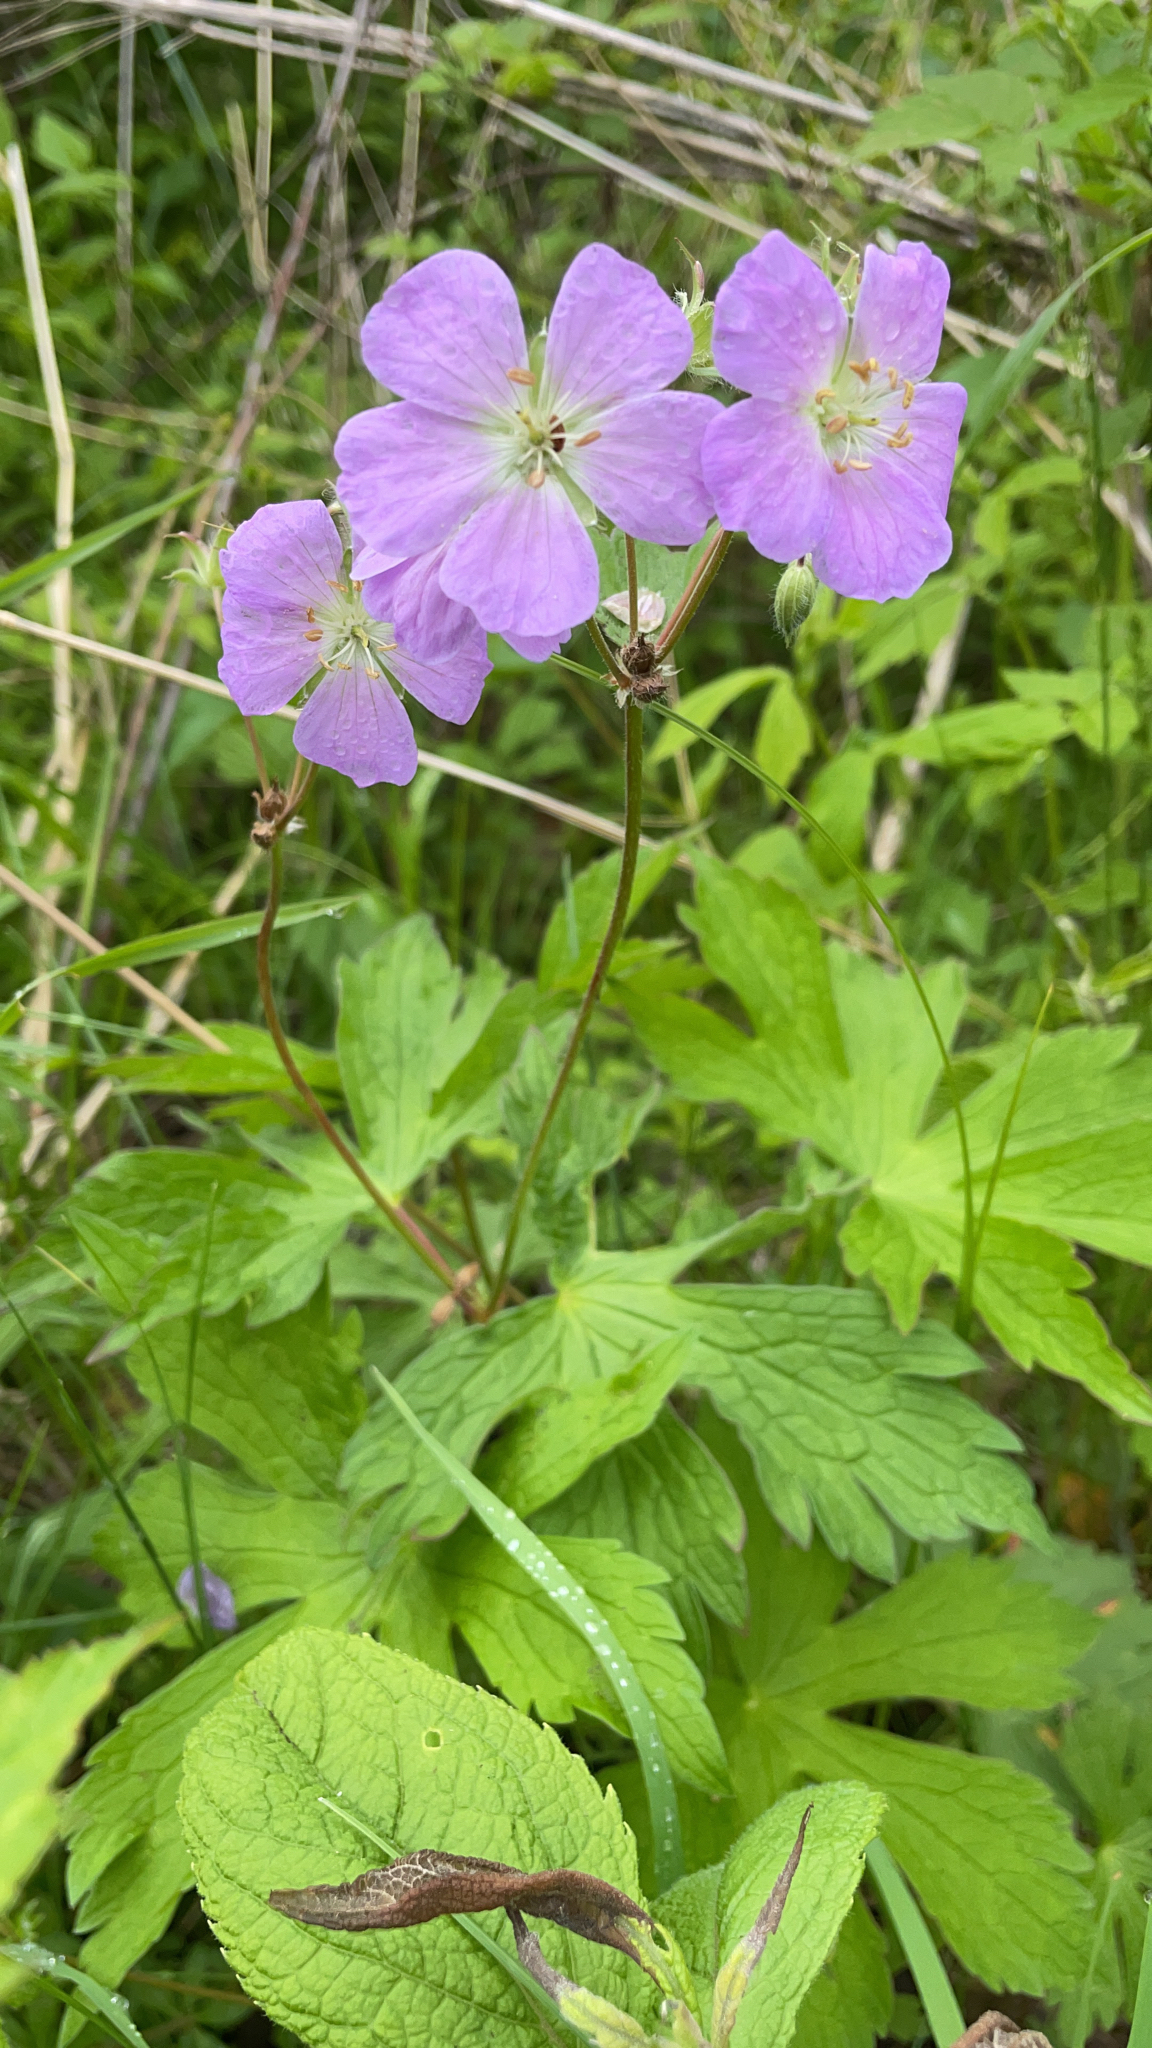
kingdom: Plantae
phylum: Tracheophyta
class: Magnoliopsida
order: Geraniales
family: Geraniaceae
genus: Geranium
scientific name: Geranium maculatum
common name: Spotted geranium
